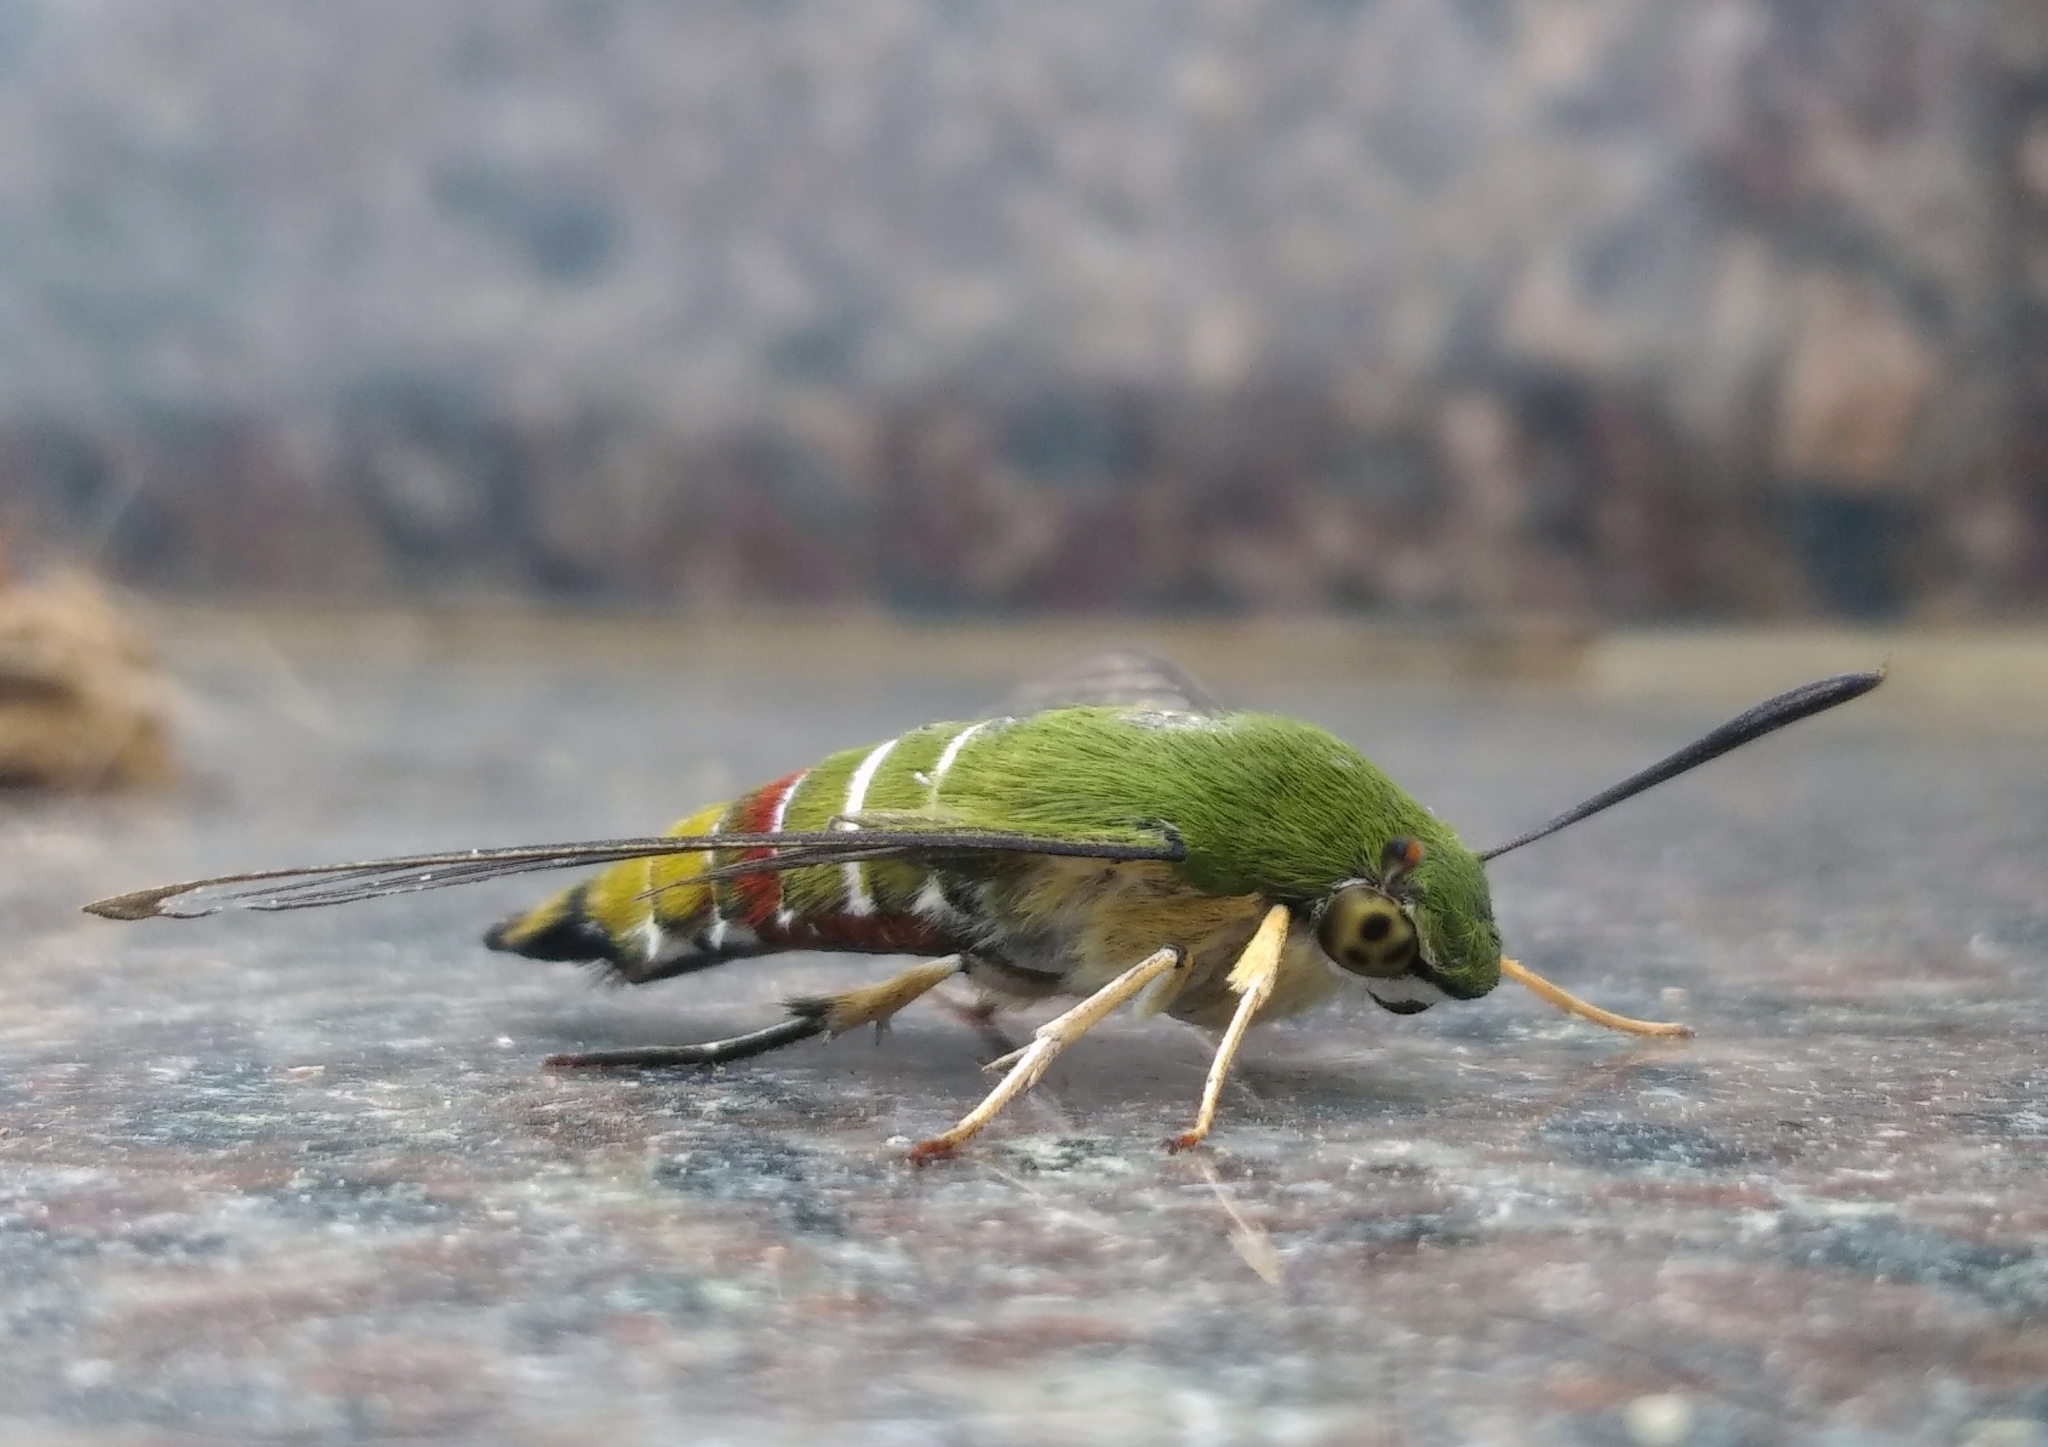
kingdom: Animalia
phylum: Arthropoda
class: Insecta
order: Lepidoptera
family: Sphingidae
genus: Cephonodes
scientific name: Cephonodes hylas
